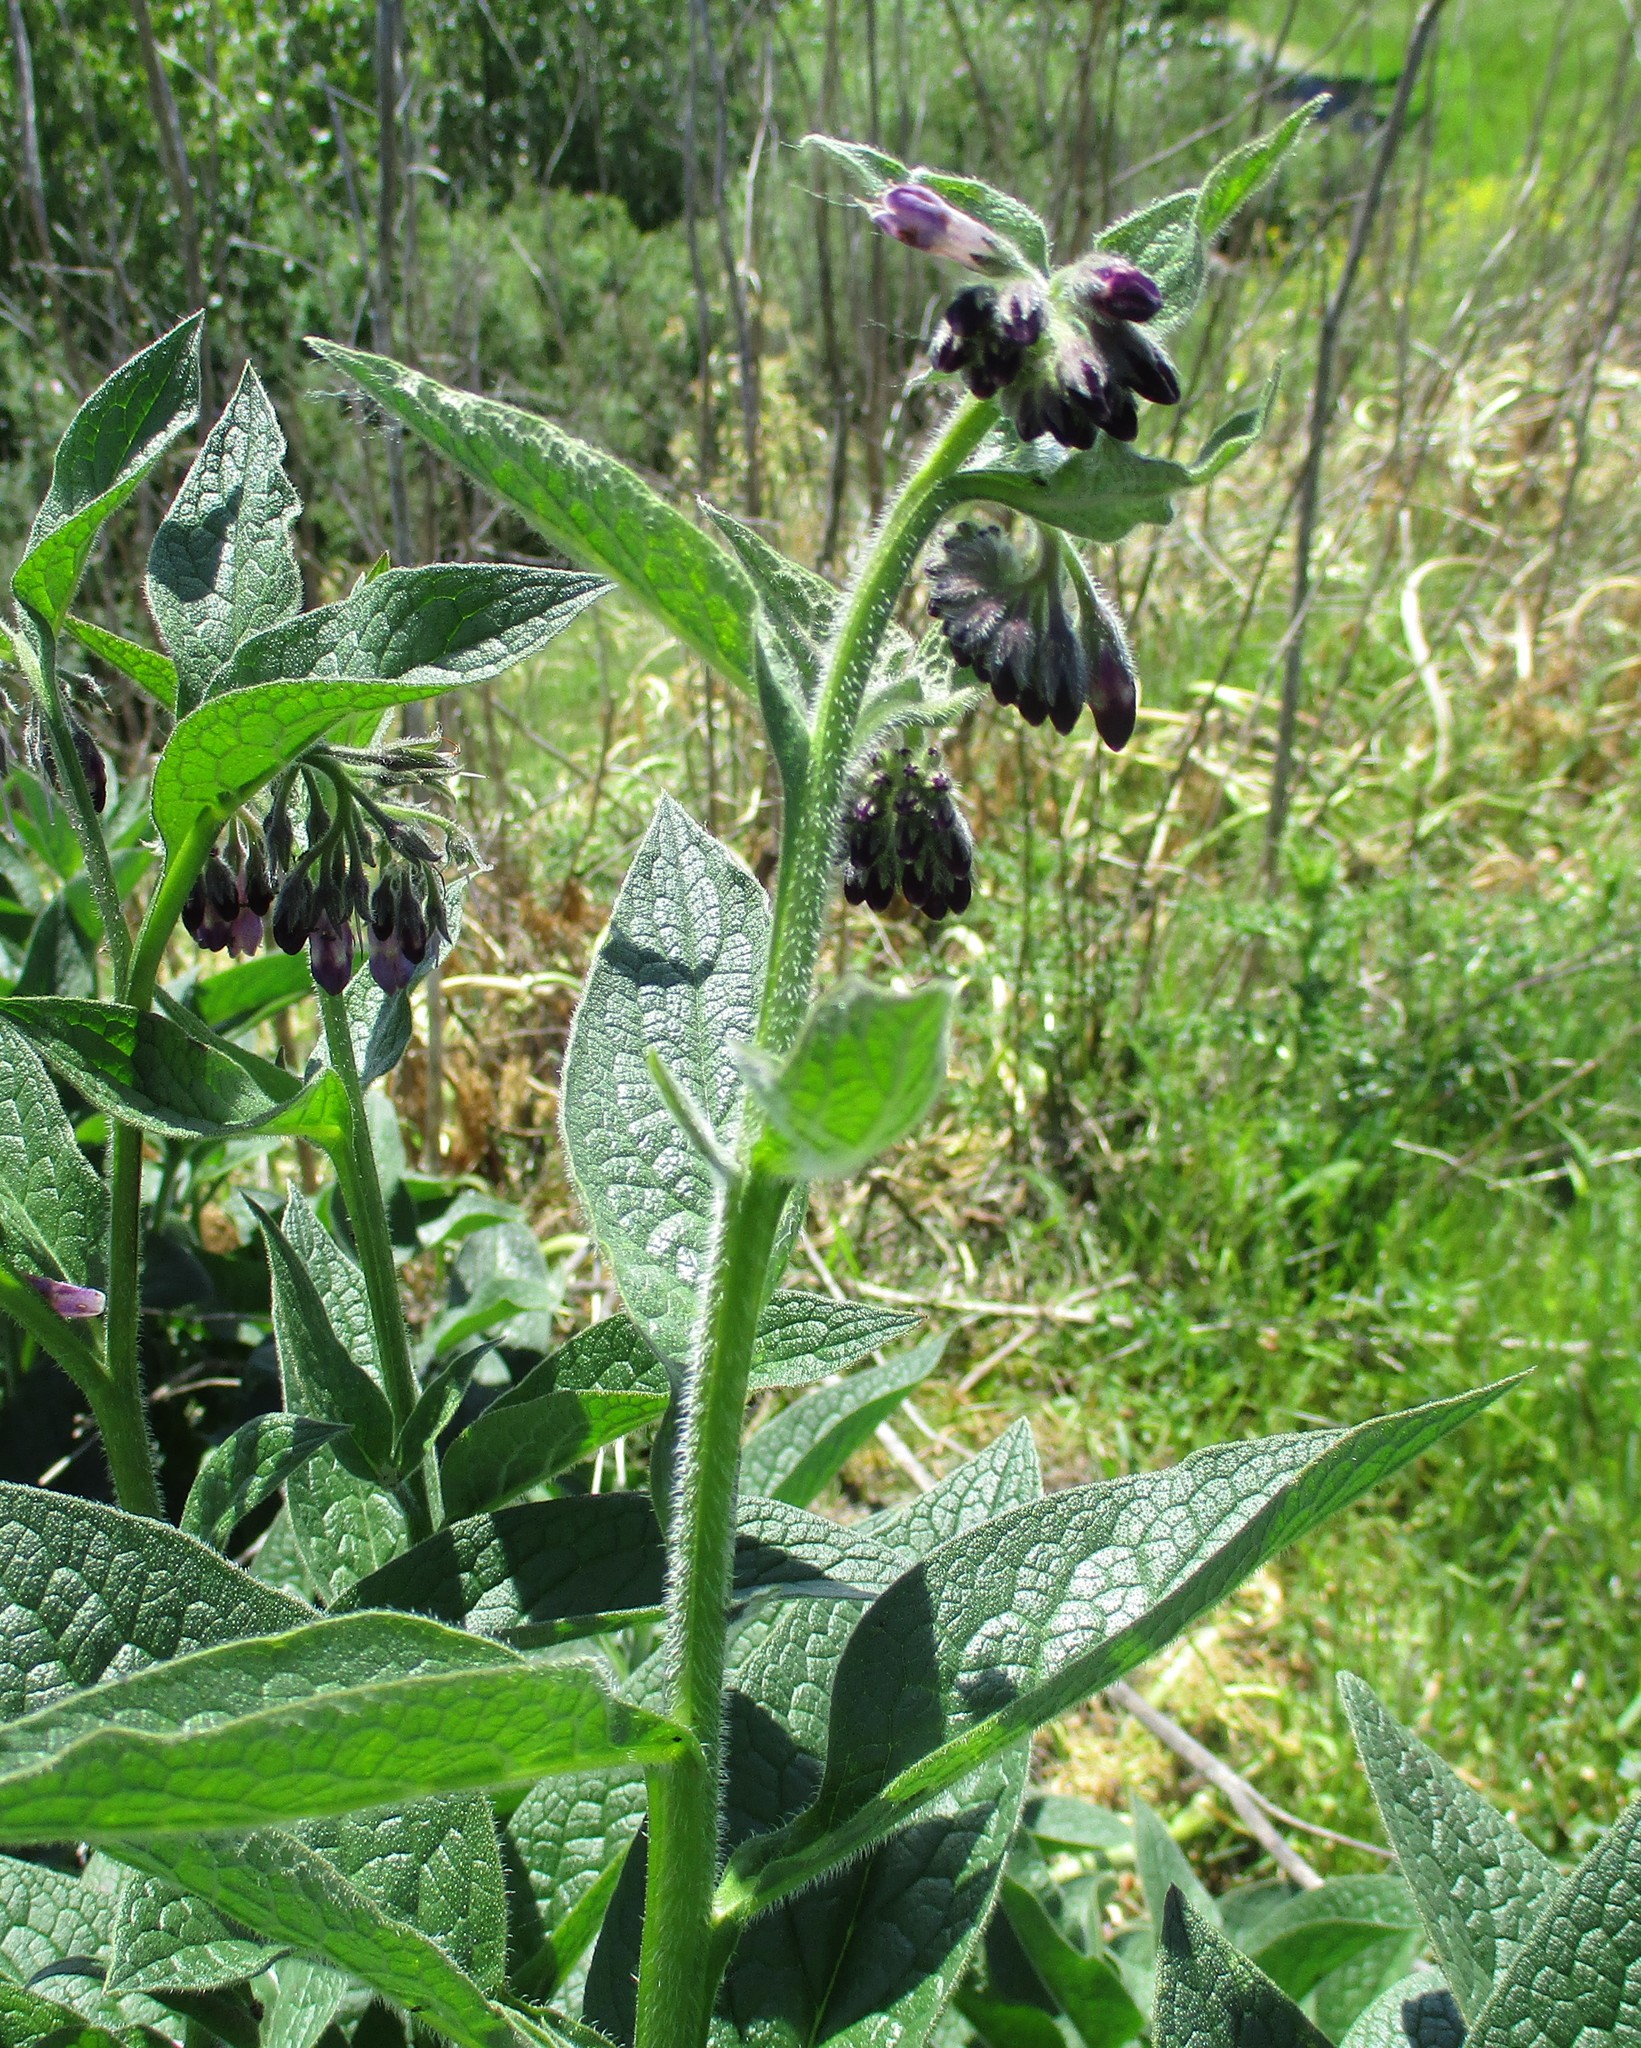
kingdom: Plantae
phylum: Tracheophyta
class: Magnoliopsida
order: Boraginales
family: Boraginaceae
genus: Symphytum
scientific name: Symphytum officinale
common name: Common comfrey
